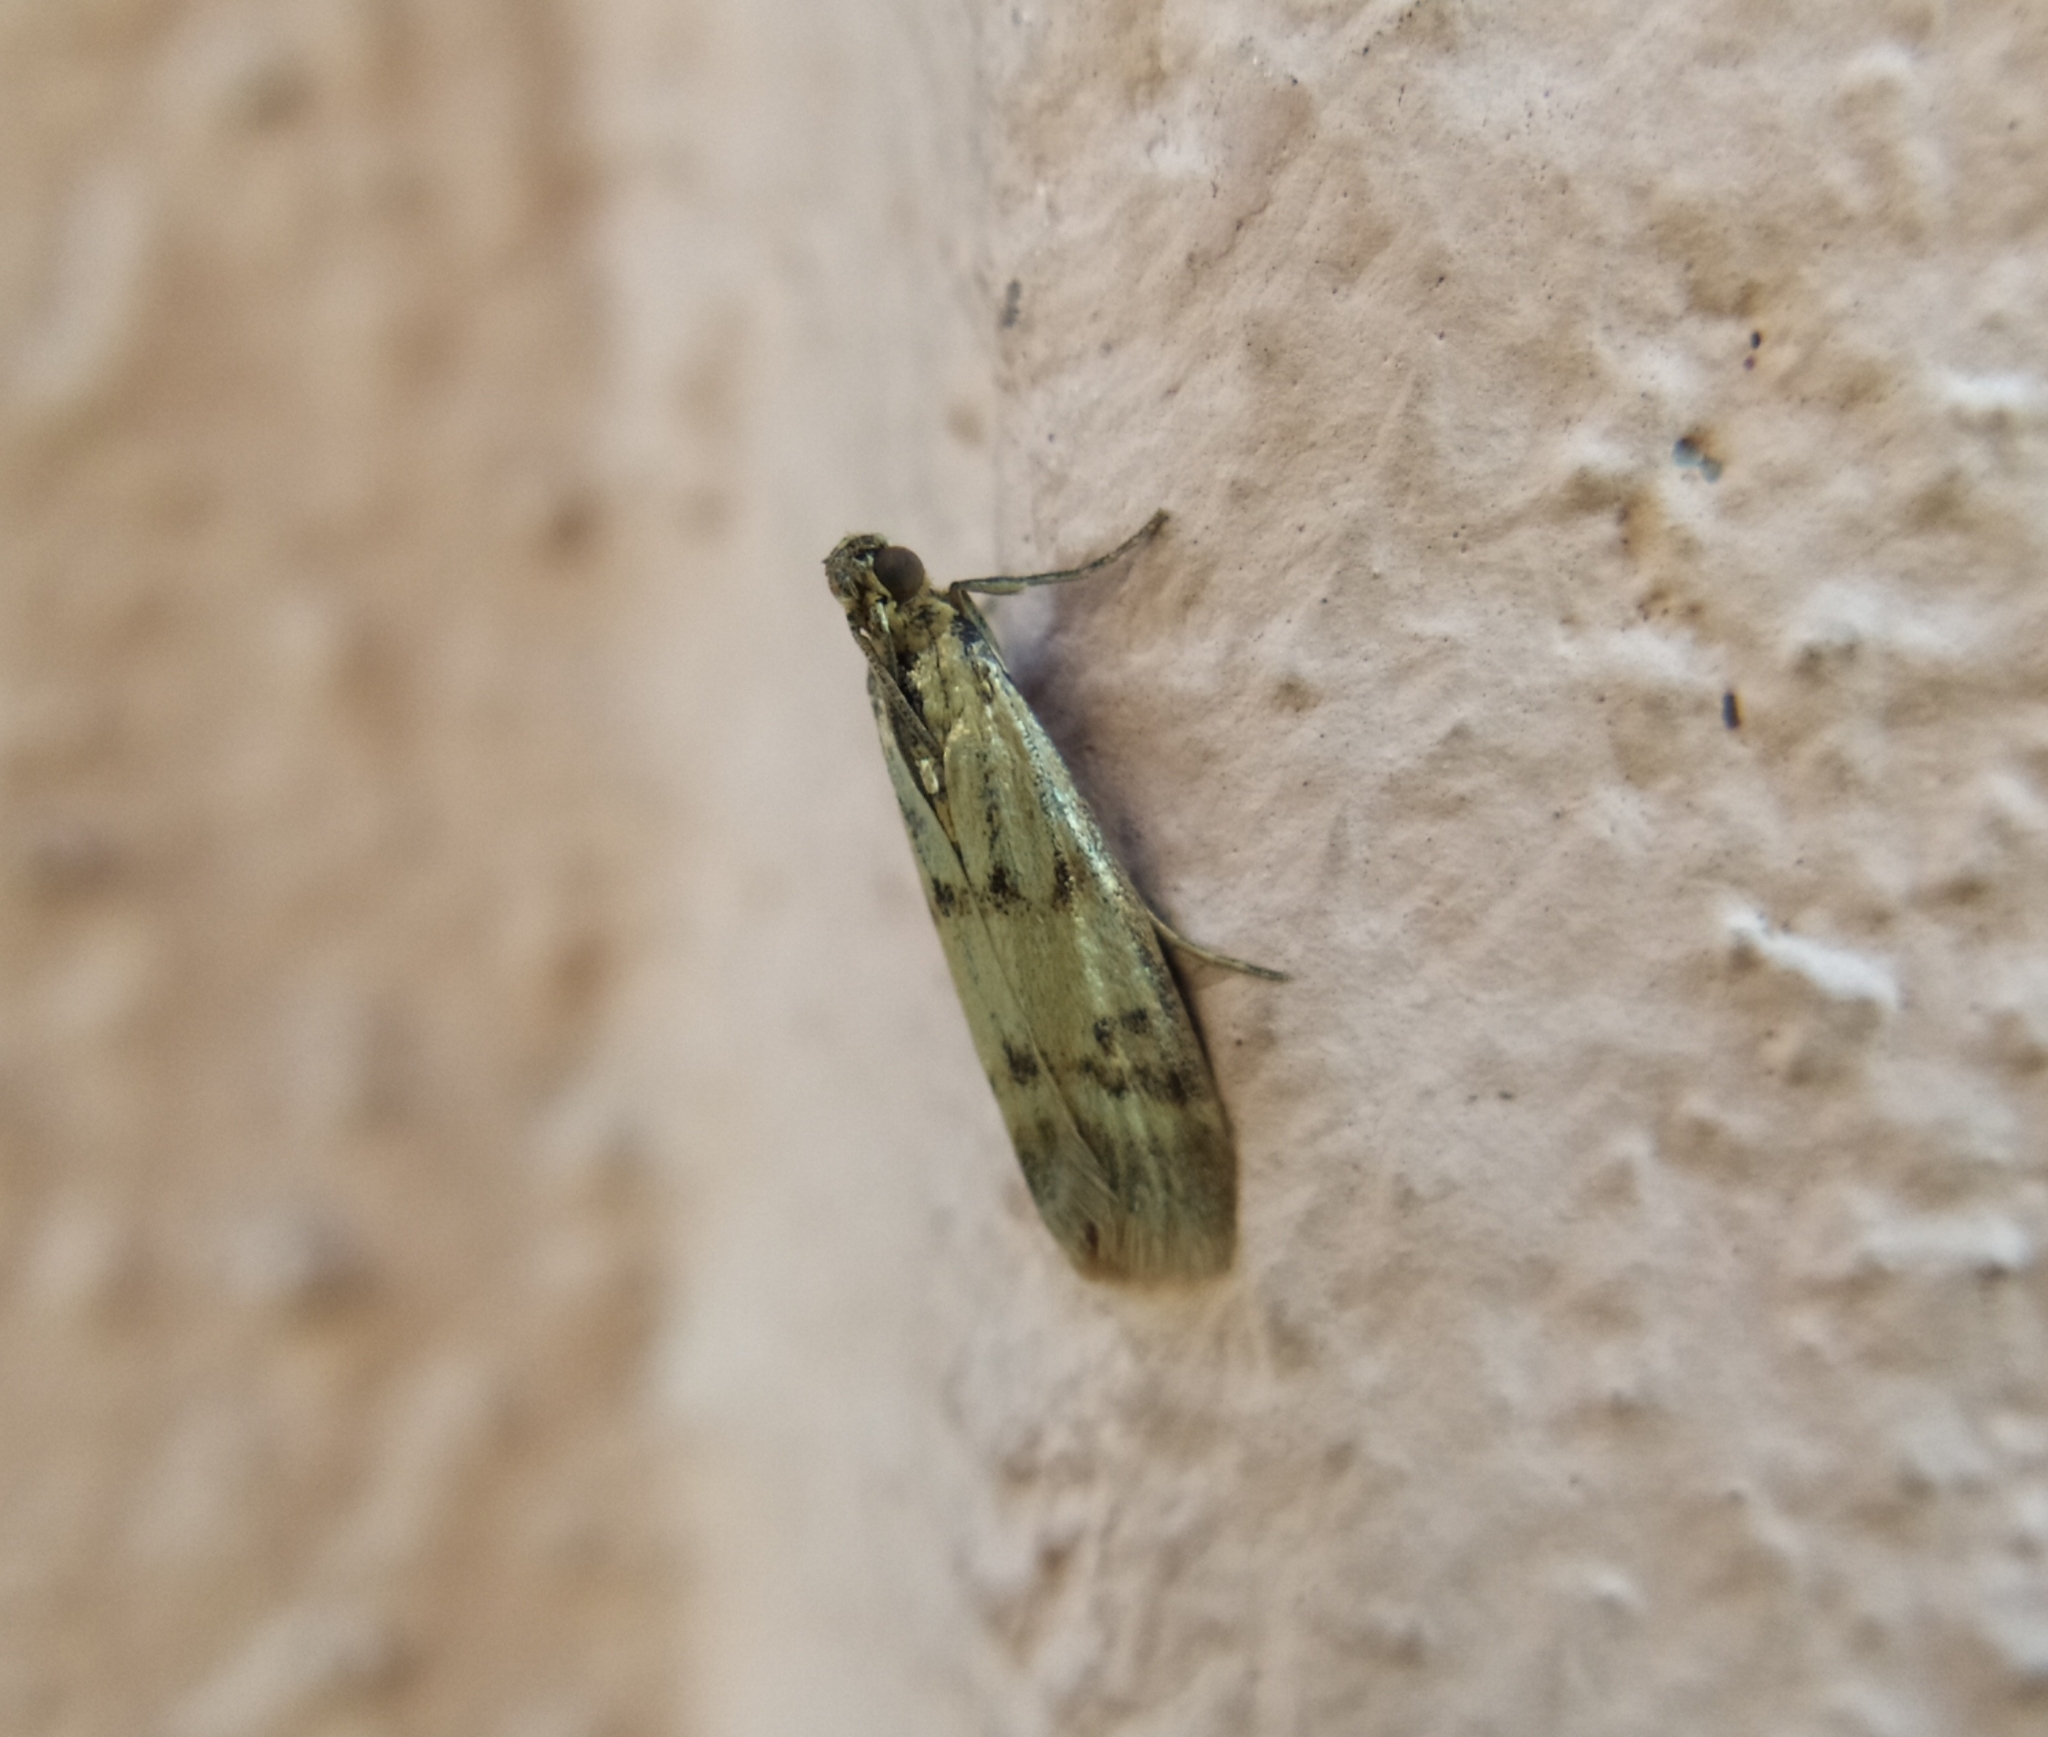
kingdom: Animalia
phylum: Arthropoda
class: Insecta
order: Lepidoptera
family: Pyralidae
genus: Homoeosoma
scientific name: Homoeosoma sinuella
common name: Twin-barred knot-horn
